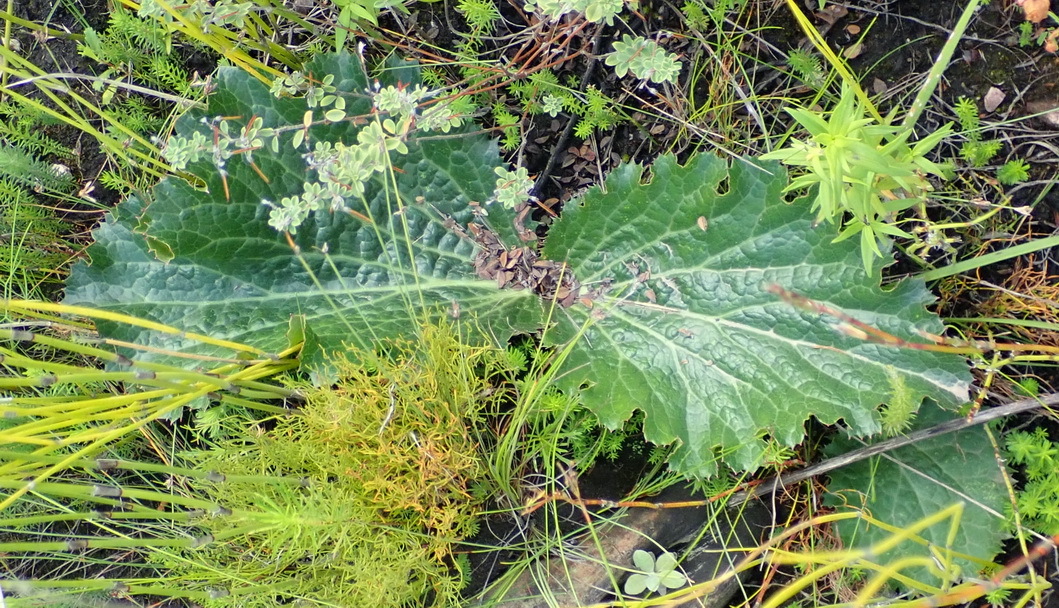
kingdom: Plantae
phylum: Tracheophyta
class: Magnoliopsida
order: Apiales
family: Apiaceae
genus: Lichtensteinia
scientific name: Lichtensteinia latifolia
